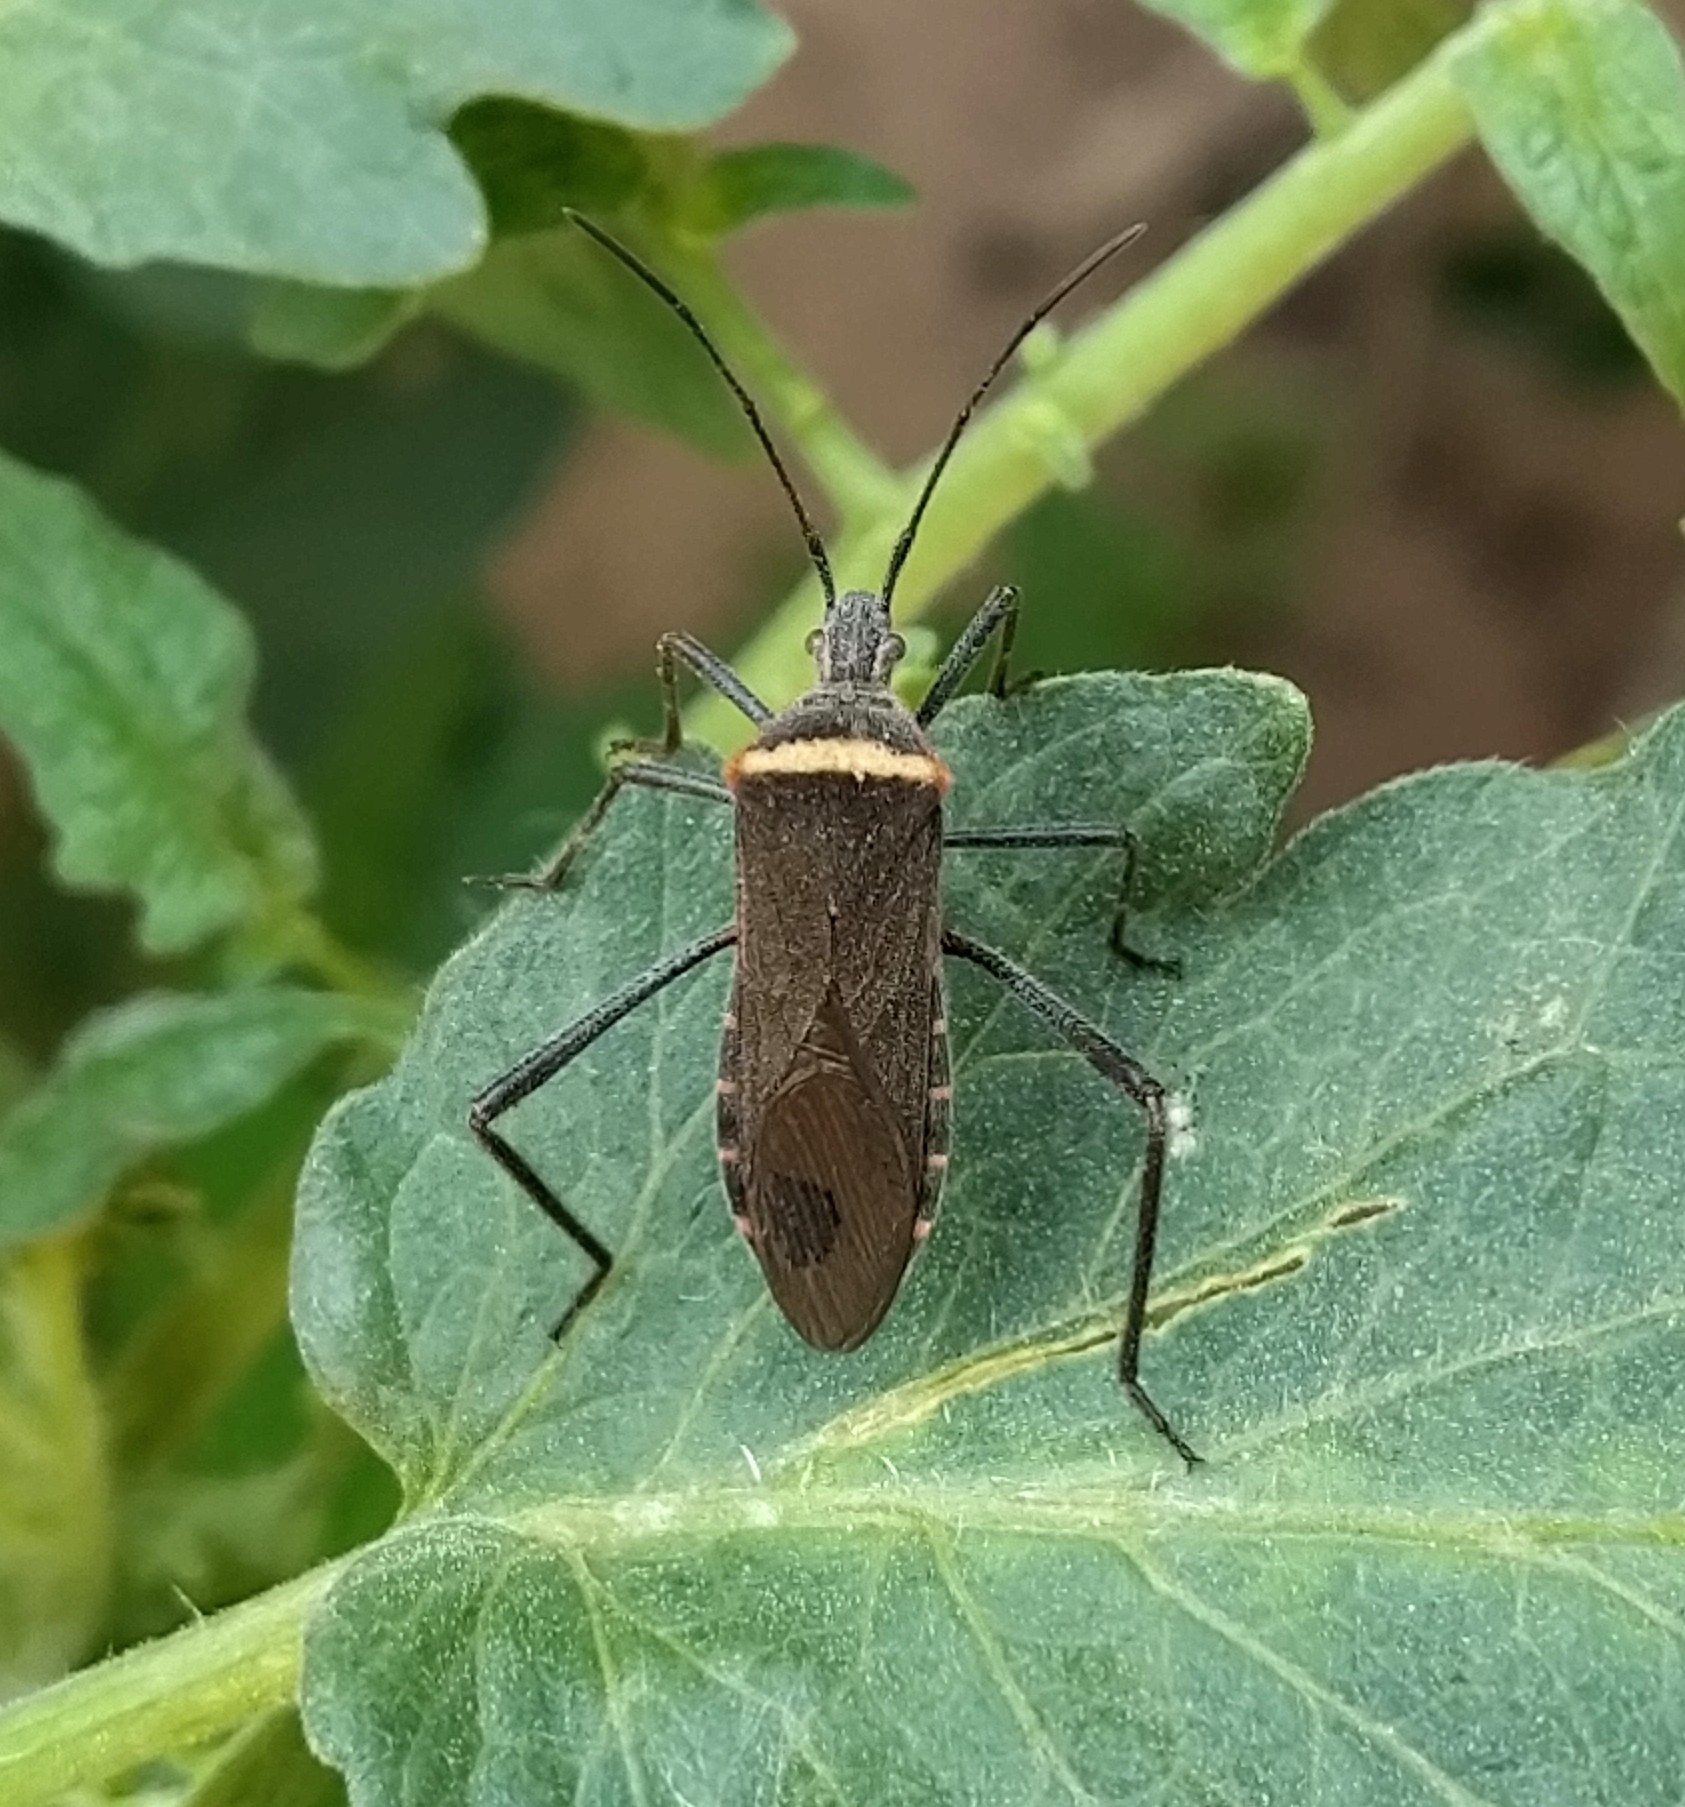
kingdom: Animalia
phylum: Arthropoda
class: Insecta
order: Hemiptera
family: Coreidae
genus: Phthiacnemia
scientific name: Phthiacnemia picta
